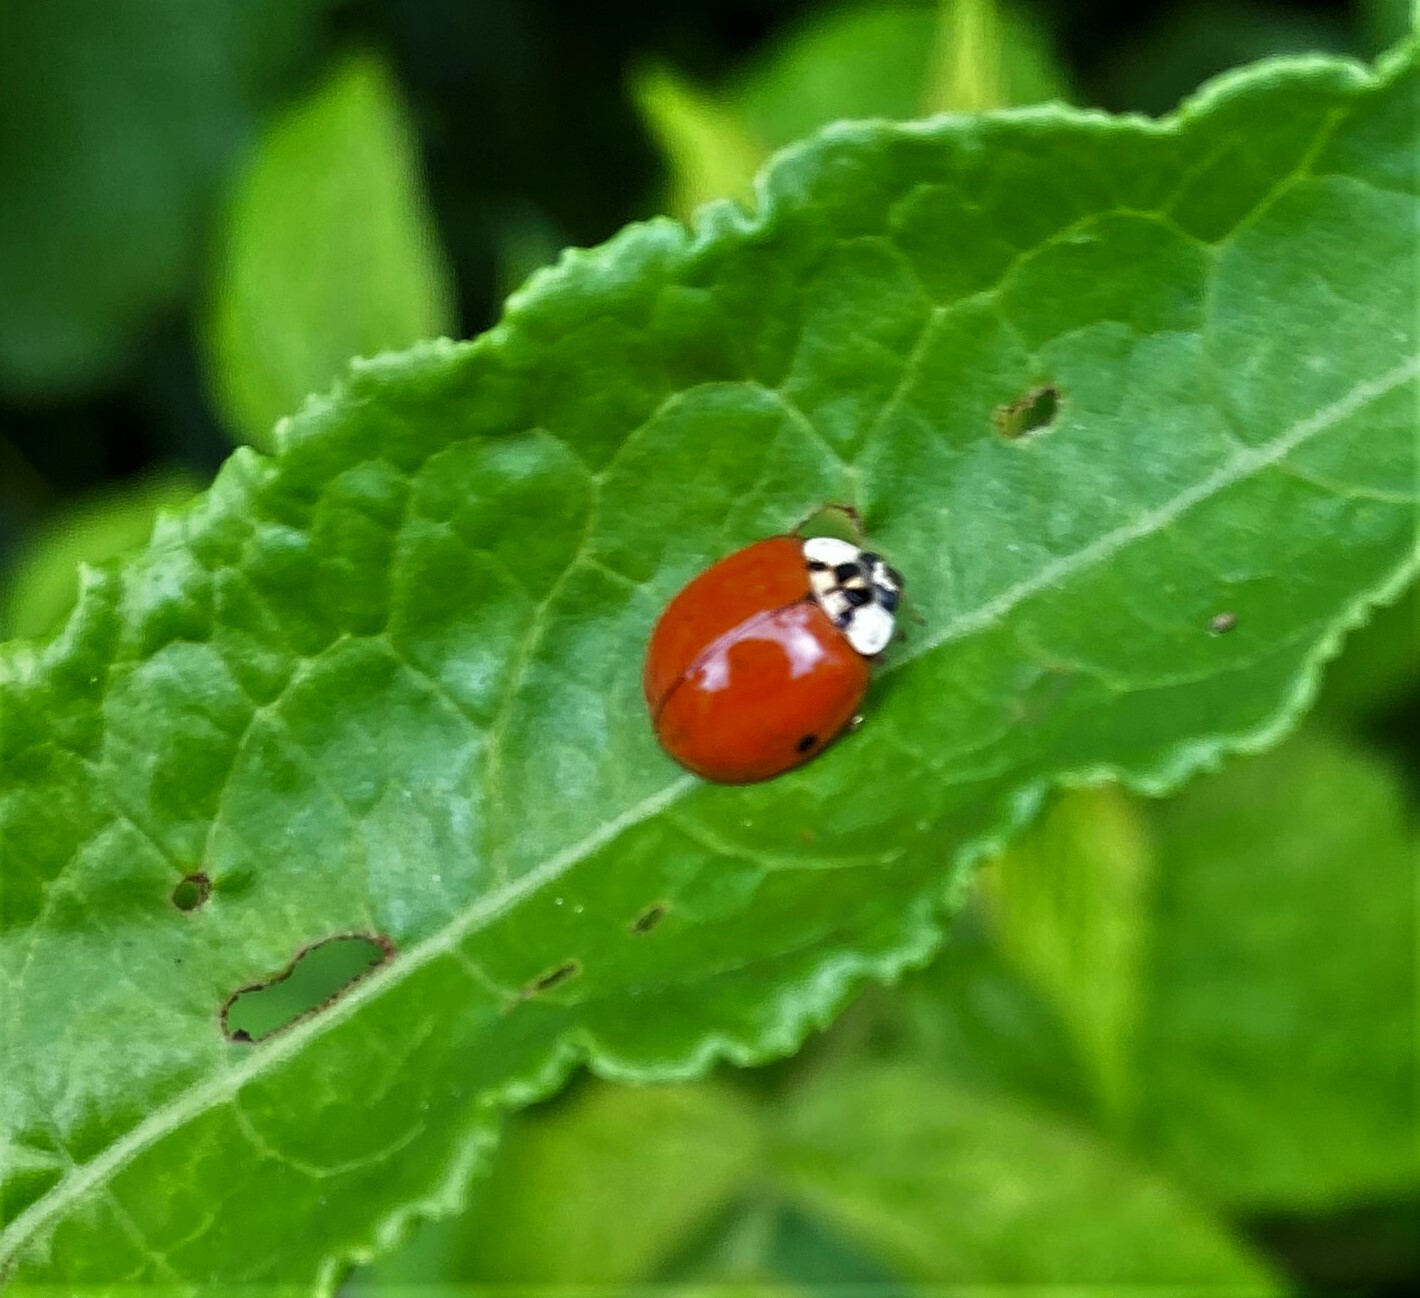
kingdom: Animalia
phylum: Arthropoda
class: Insecta
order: Coleoptera
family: Coccinellidae
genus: Harmonia
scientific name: Harmonia axyridis
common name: Harlequin ladybird
